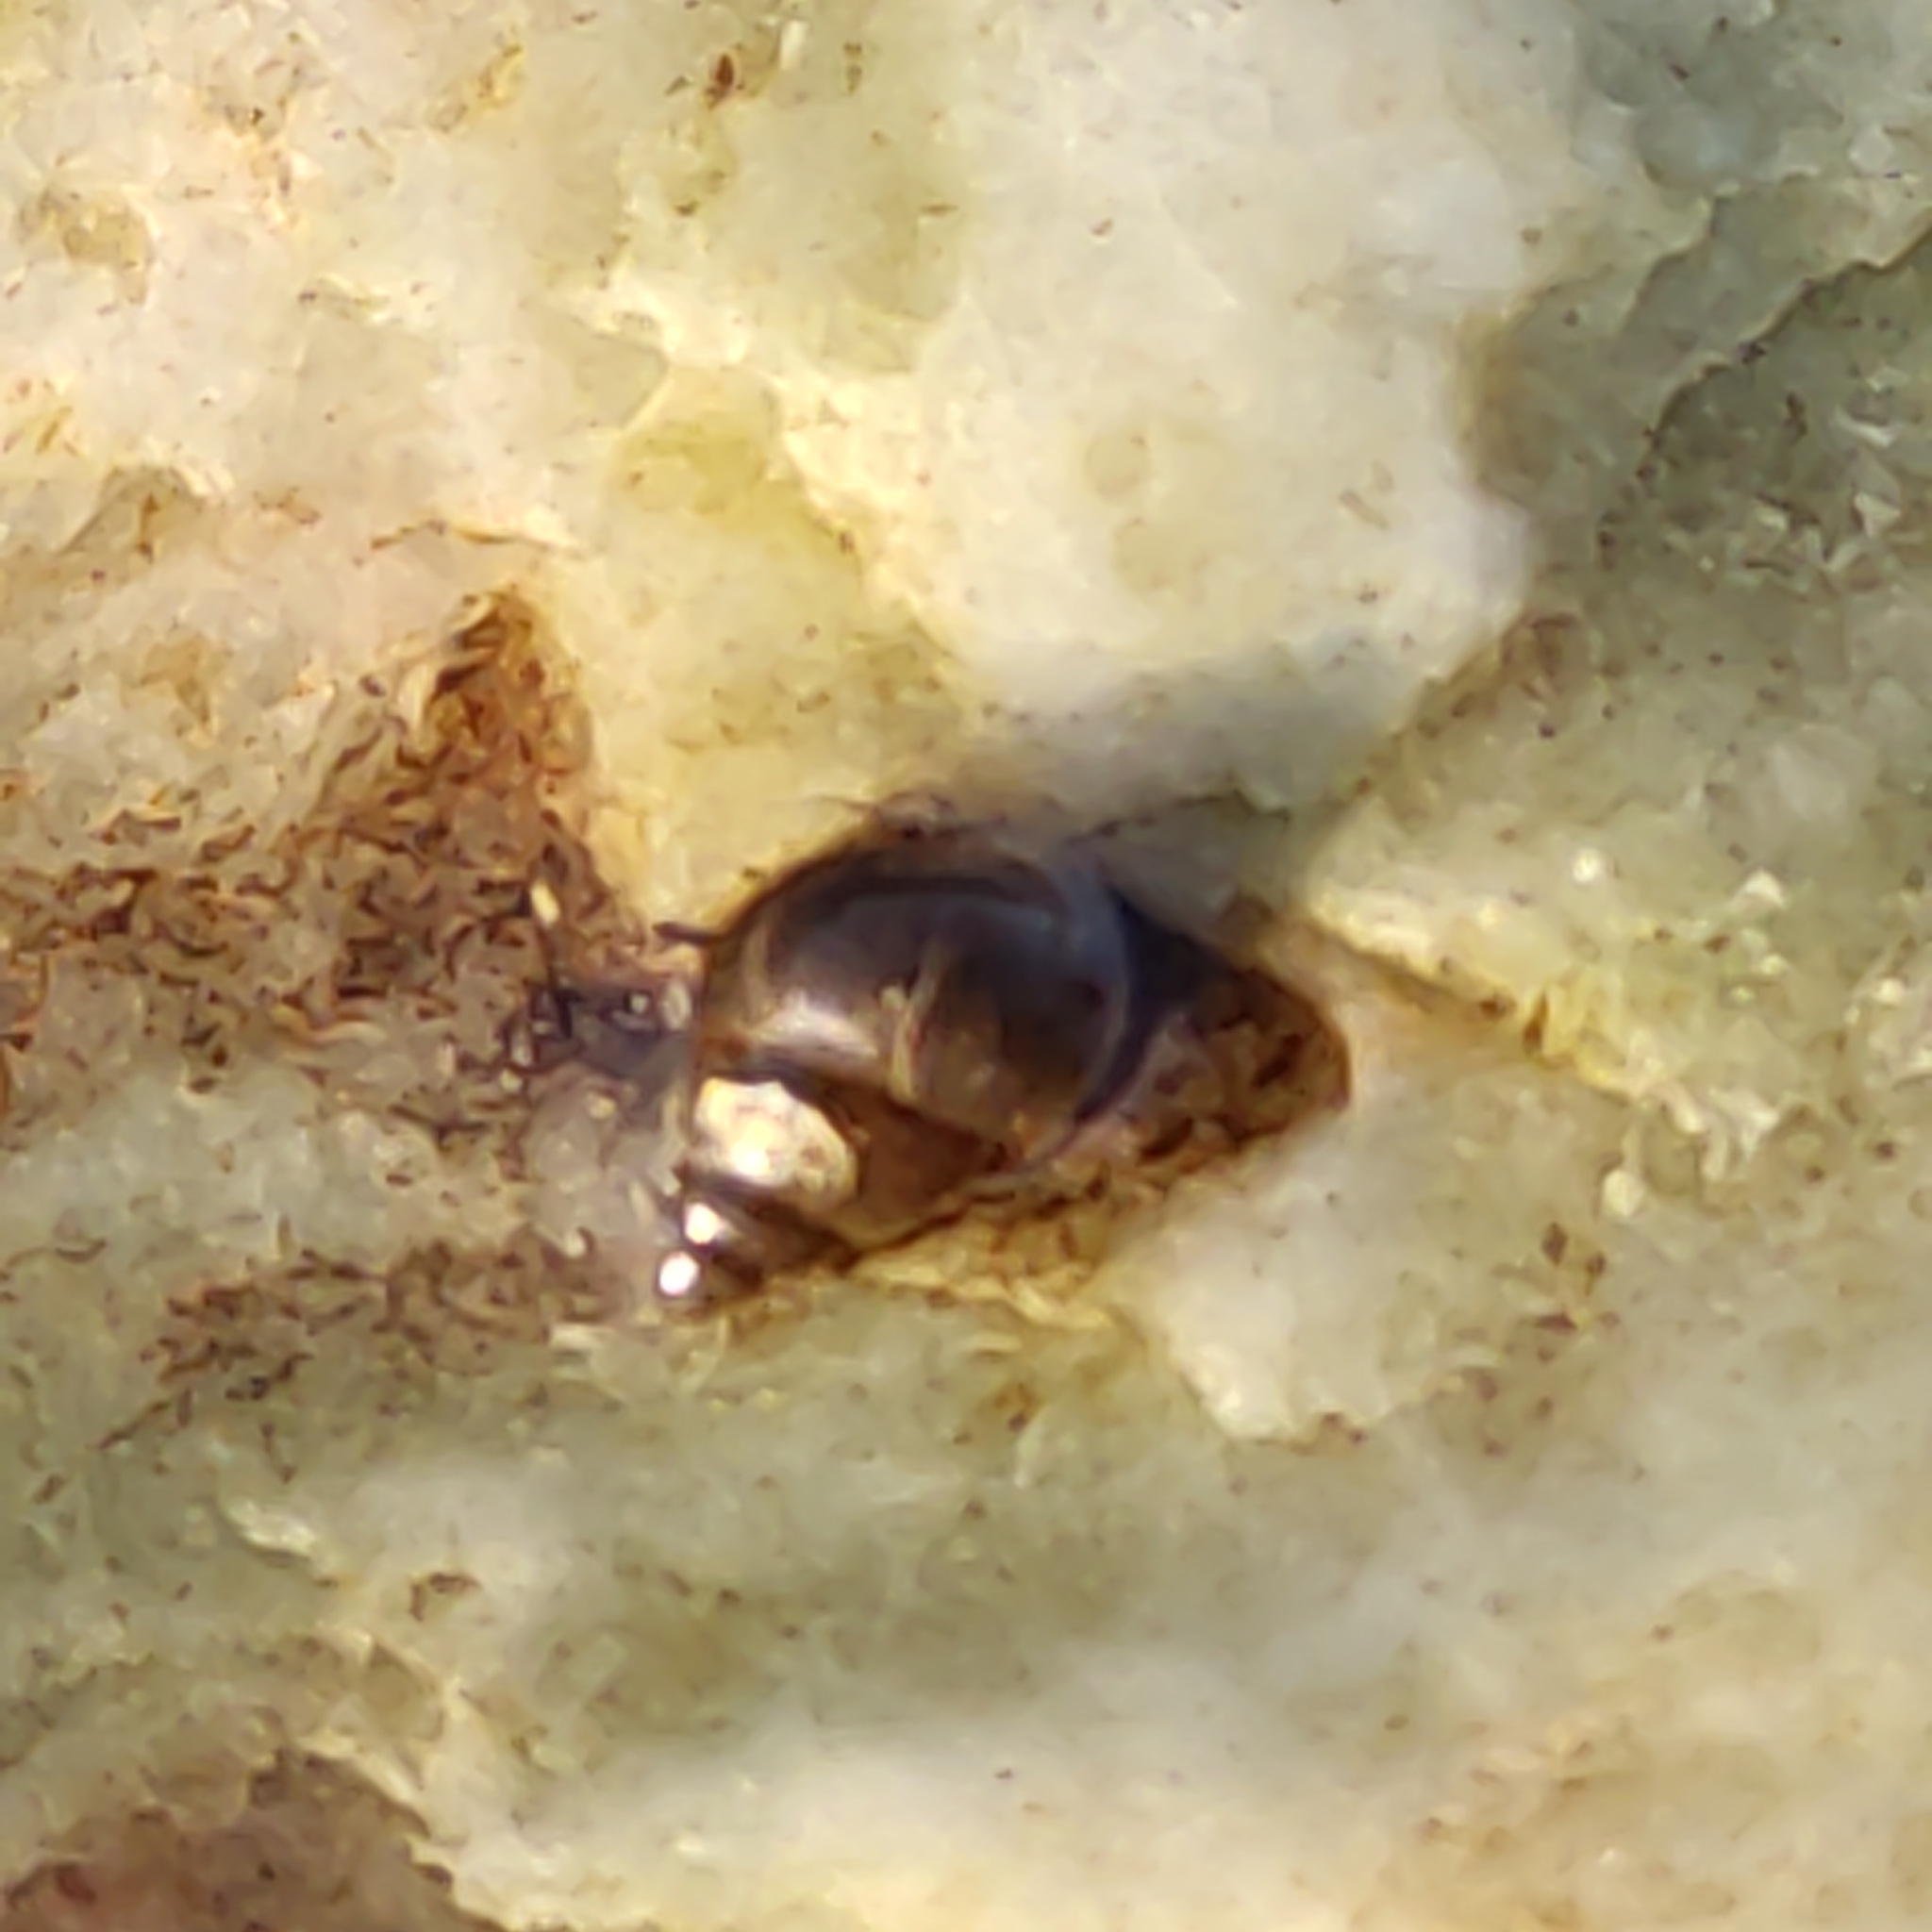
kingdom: Animalia
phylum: Mollusca
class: Gastropoda
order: Littorinimorpha
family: Tateidae
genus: Potamopyrgus
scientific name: Potamopyrgus antipodarum
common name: Jenkins' spire snail
